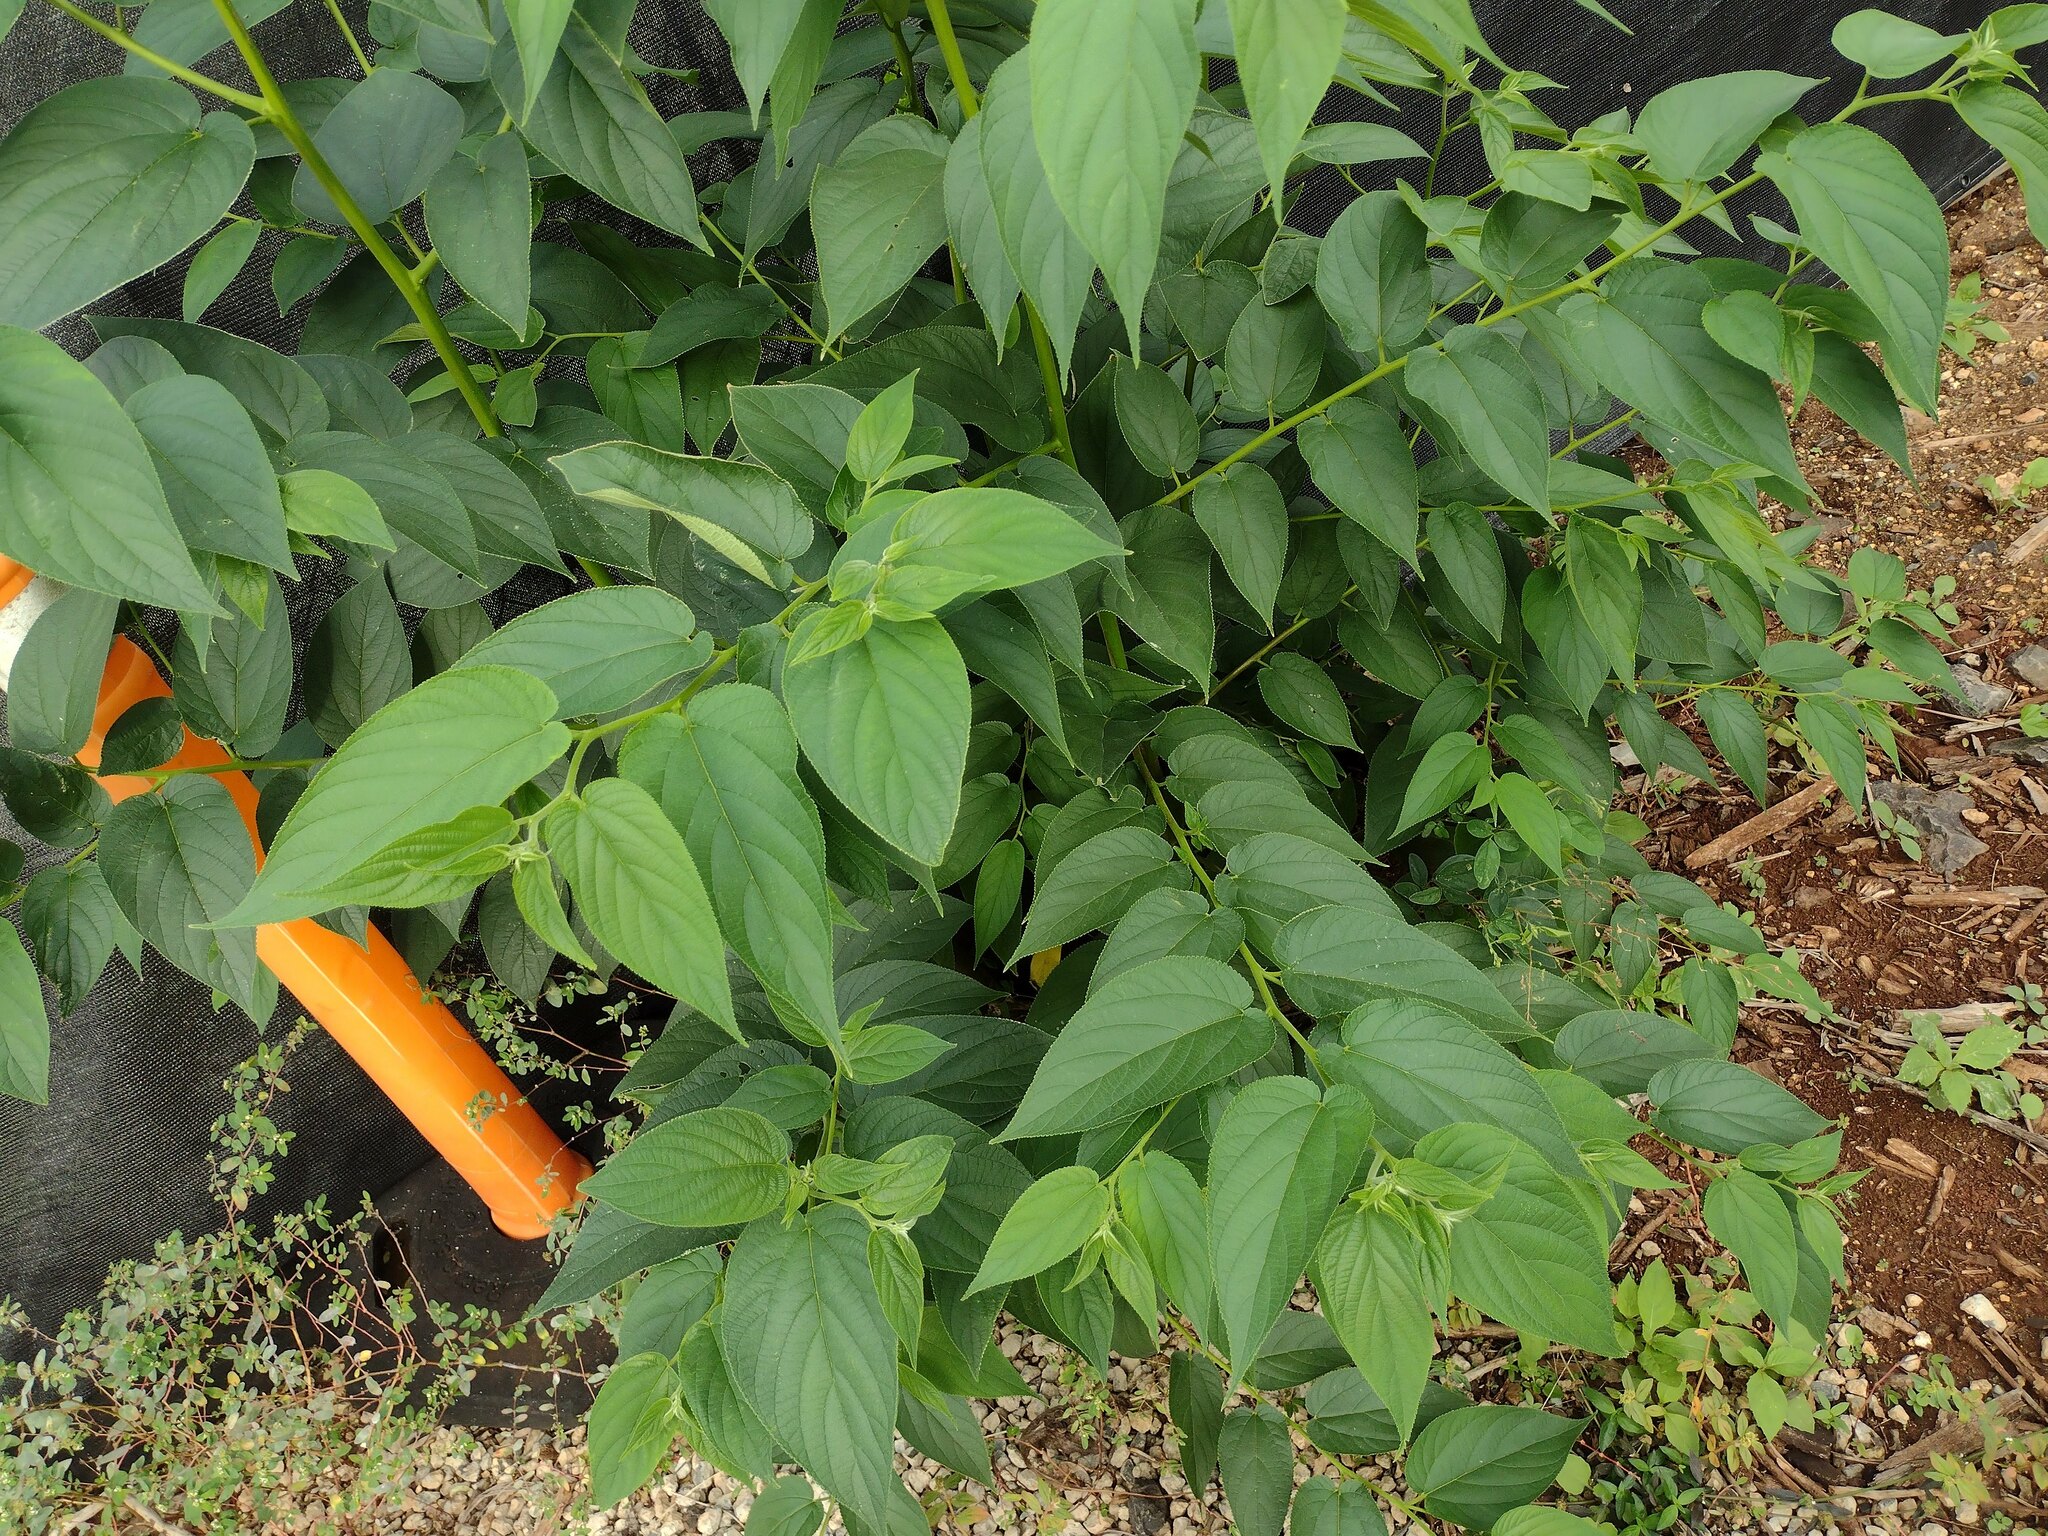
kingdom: Plantae
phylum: Tracheophyta
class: Magnoliopsida
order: Rosales
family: Cannabaceae
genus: Trema
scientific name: Trema orientale
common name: Indian charcoal tree
